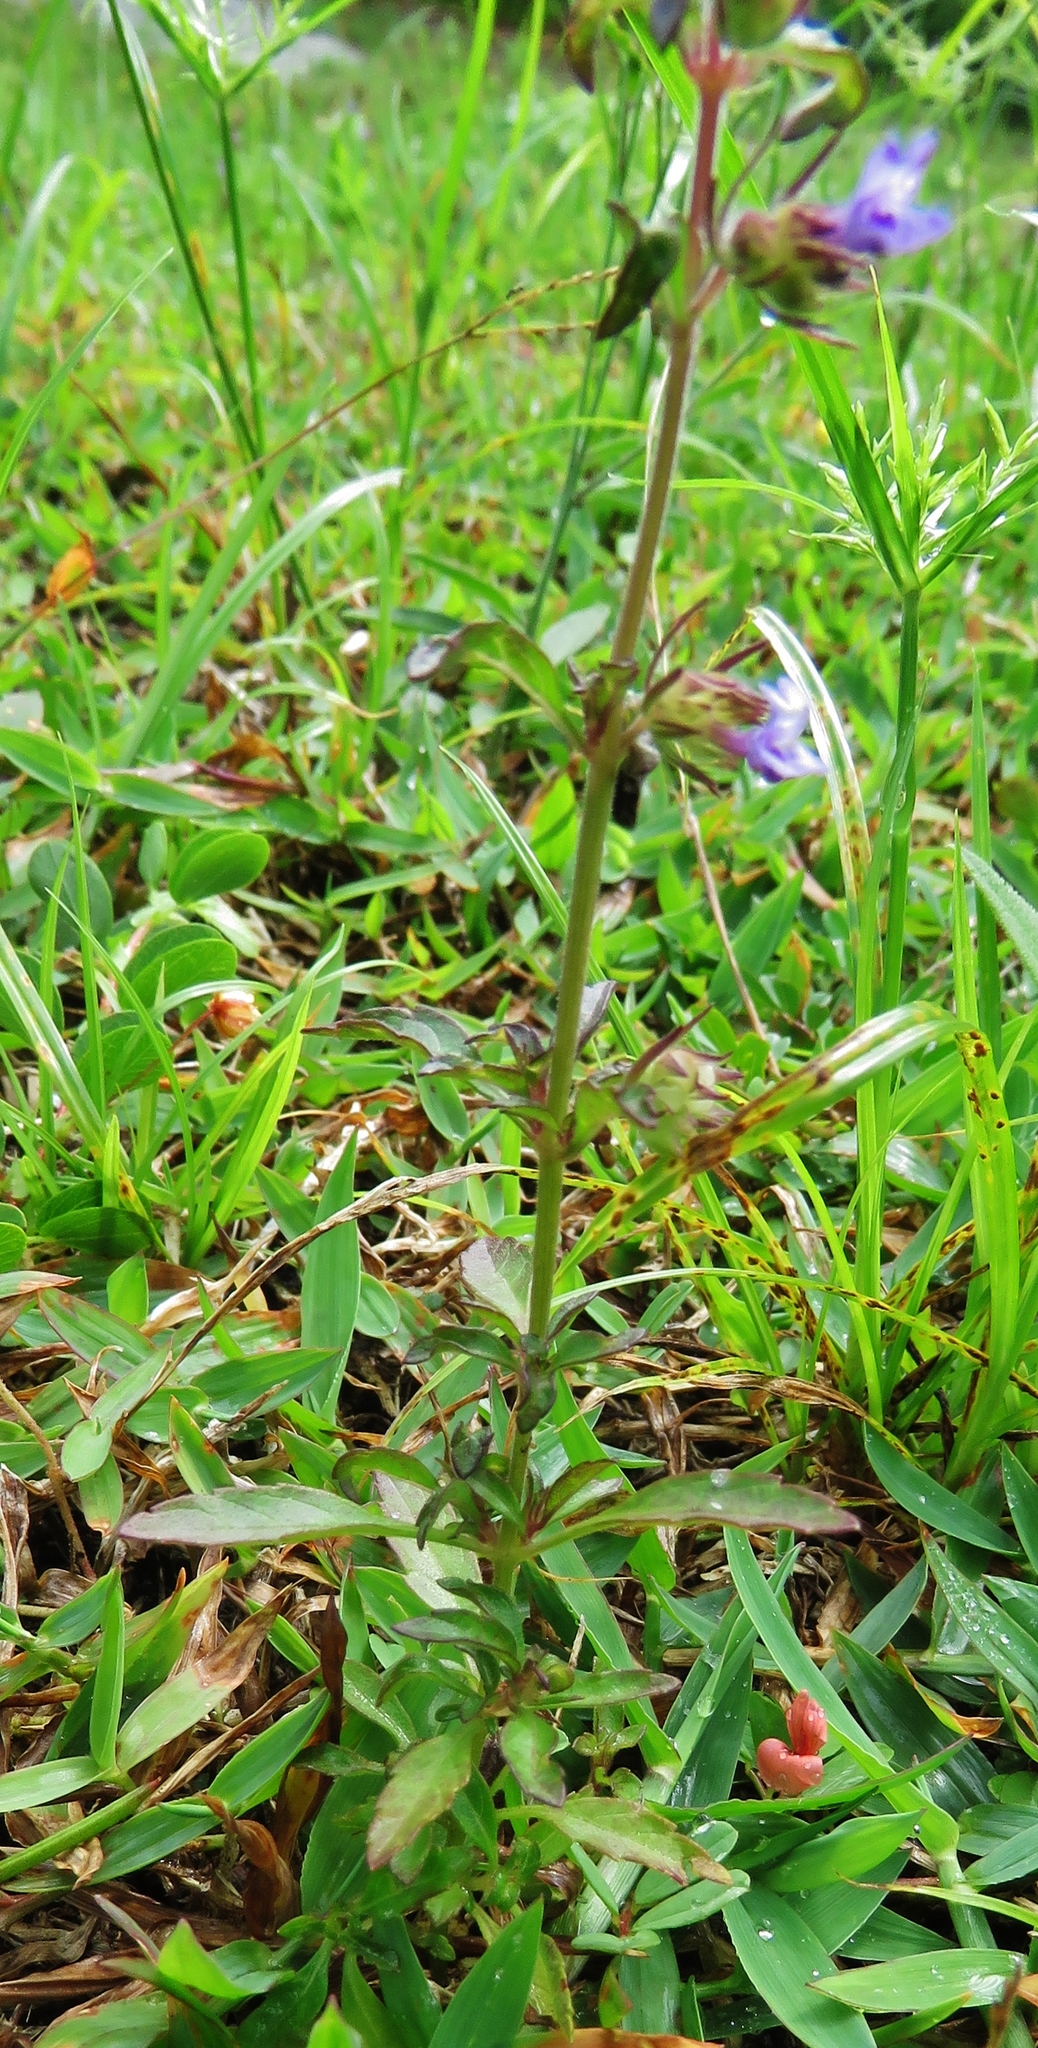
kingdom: Plantae
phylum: Tracheophyta
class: Magnoliopsida
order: Lamiales
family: Lamiaceae
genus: Marsypianthes
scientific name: Marsypianthes chamaedrys
